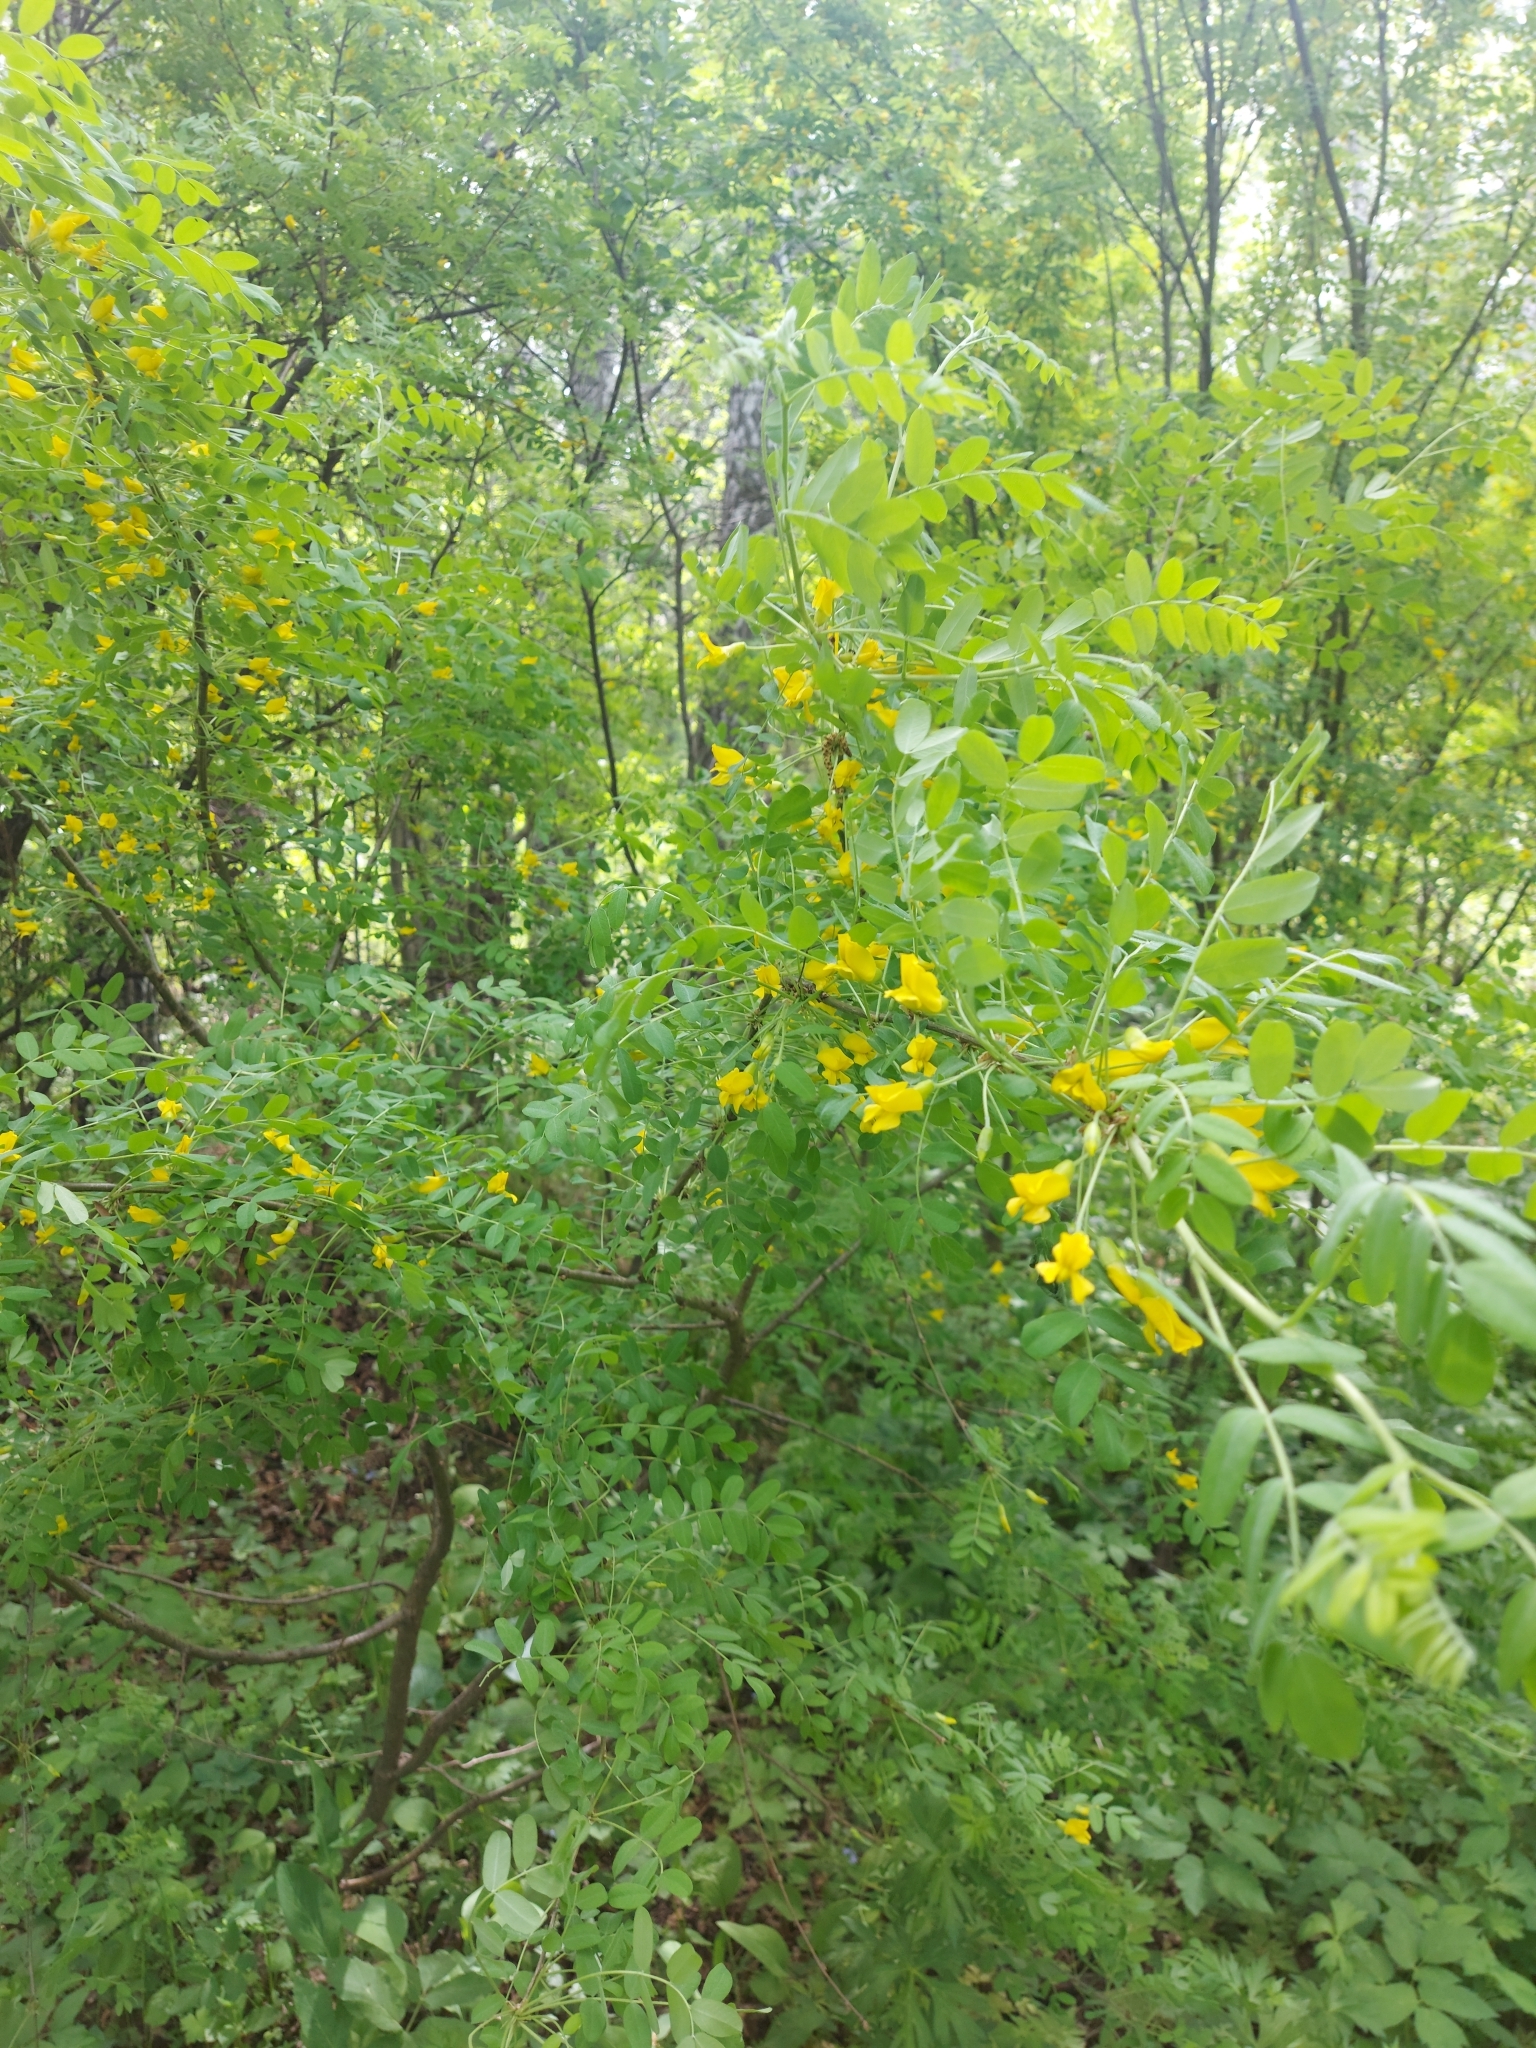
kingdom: Plantae
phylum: Tracheophyta
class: Magnoliopsida
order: Fabales
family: Fabaceae
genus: Caragana
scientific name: Caragana arborescens
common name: Siberian peashrub
